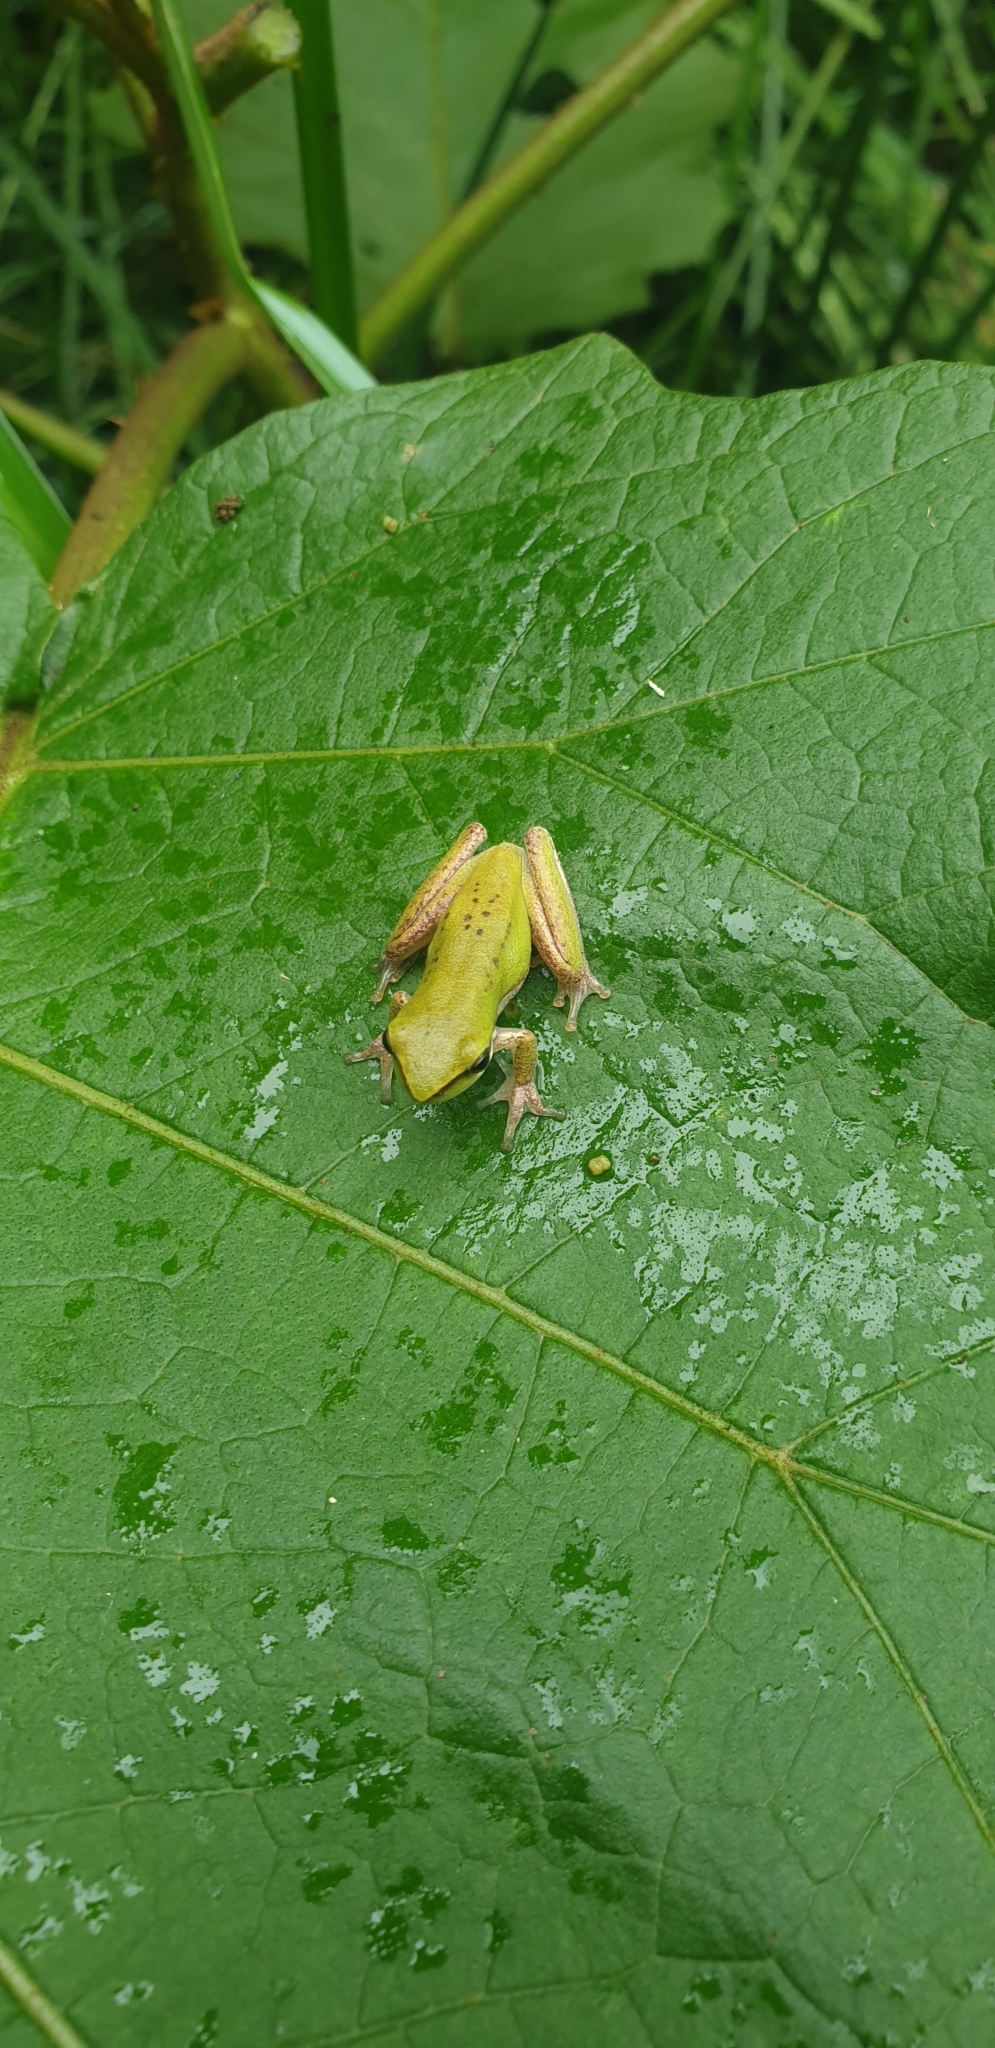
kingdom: Animalia
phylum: Chordata
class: Amphibia
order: Anura
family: Pelodryadidae
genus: Litoria
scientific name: Litoria fallax
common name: Eastern dwarf treefrog
